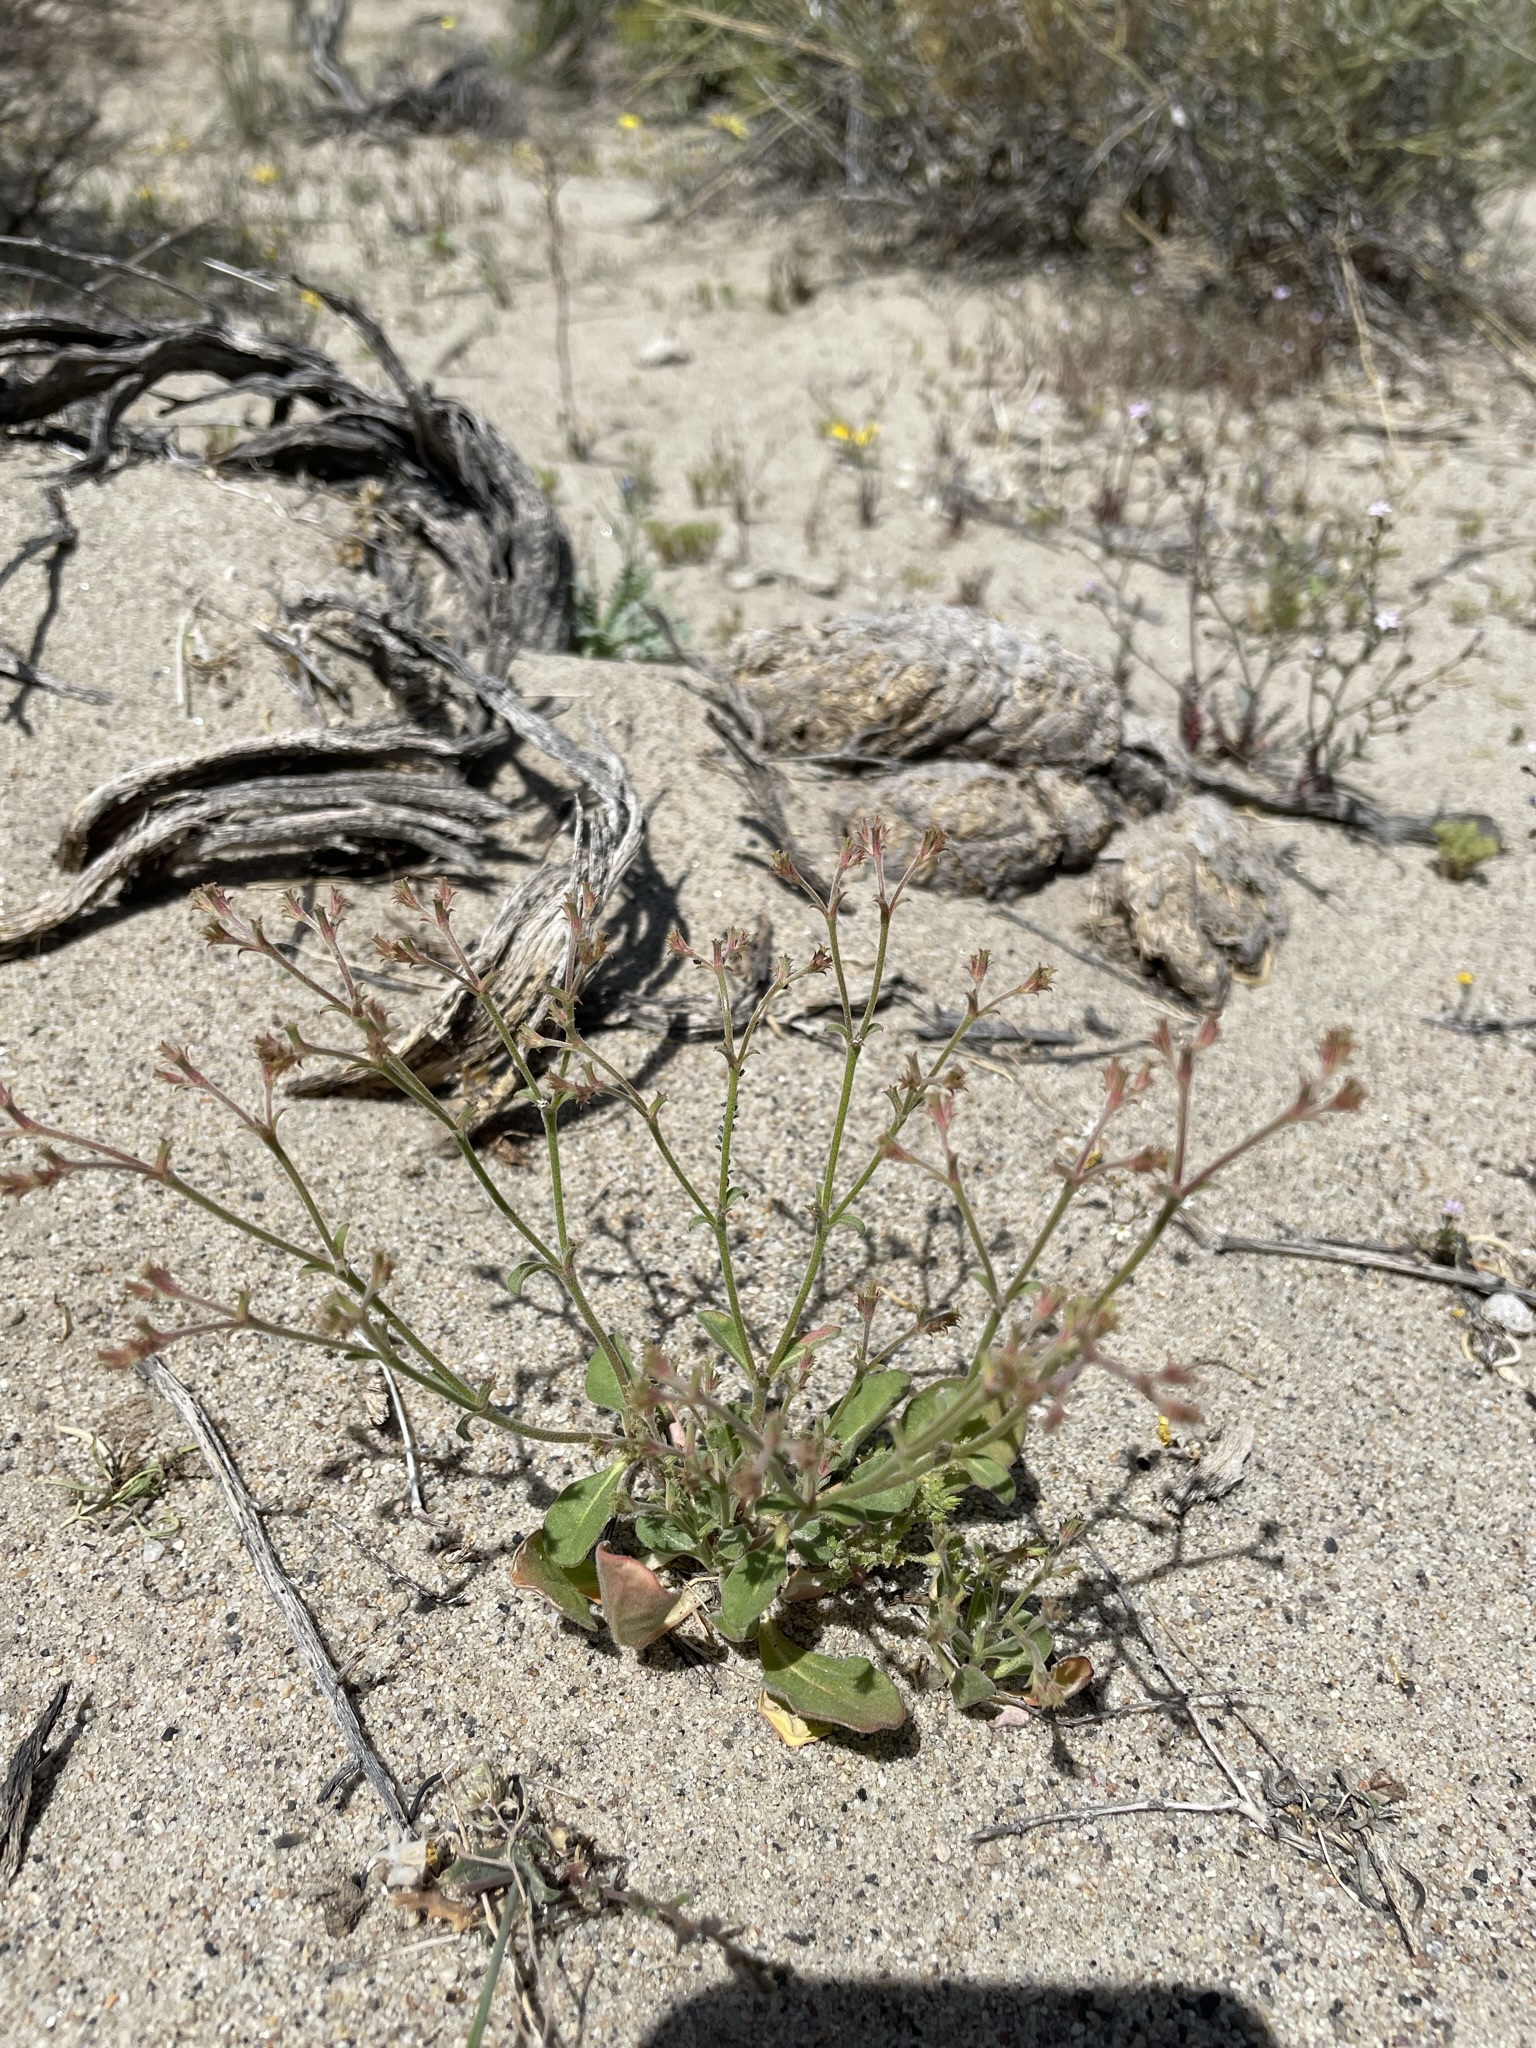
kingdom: Plantae
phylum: Tracheophyta
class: Magnoliopsida
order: Caryophyllales
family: Polygonaceae
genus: Chorizanthe
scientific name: Chorizanthe brevicornu
